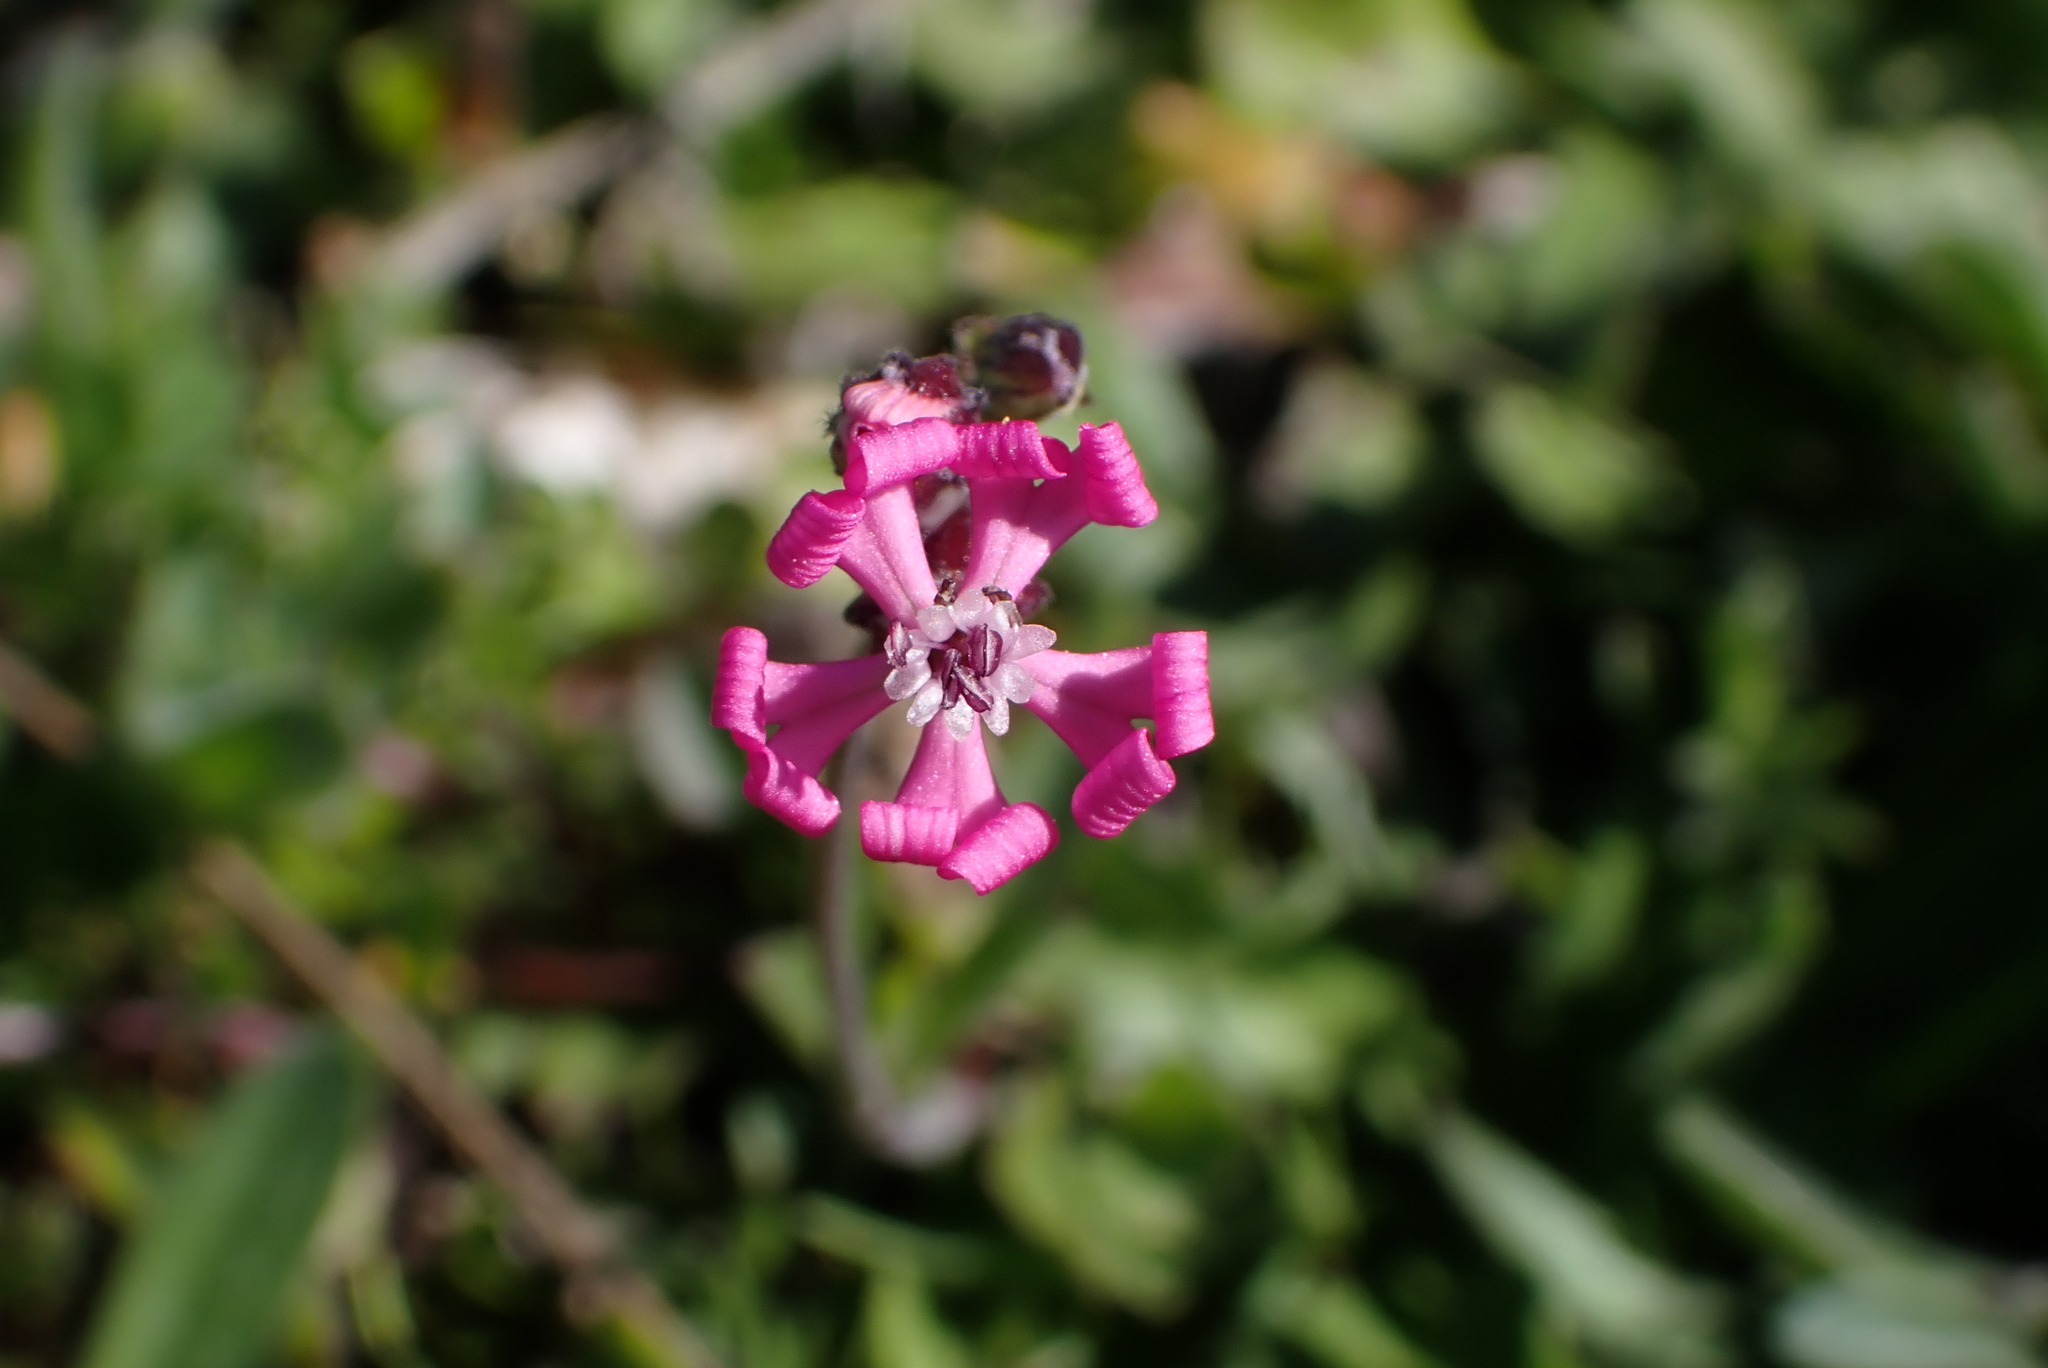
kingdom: Plantae
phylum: Tracheophyta
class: Magnoliopsida
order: Caryophyllales
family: Caryophyllaceae
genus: Silene
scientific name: Silene colorata
